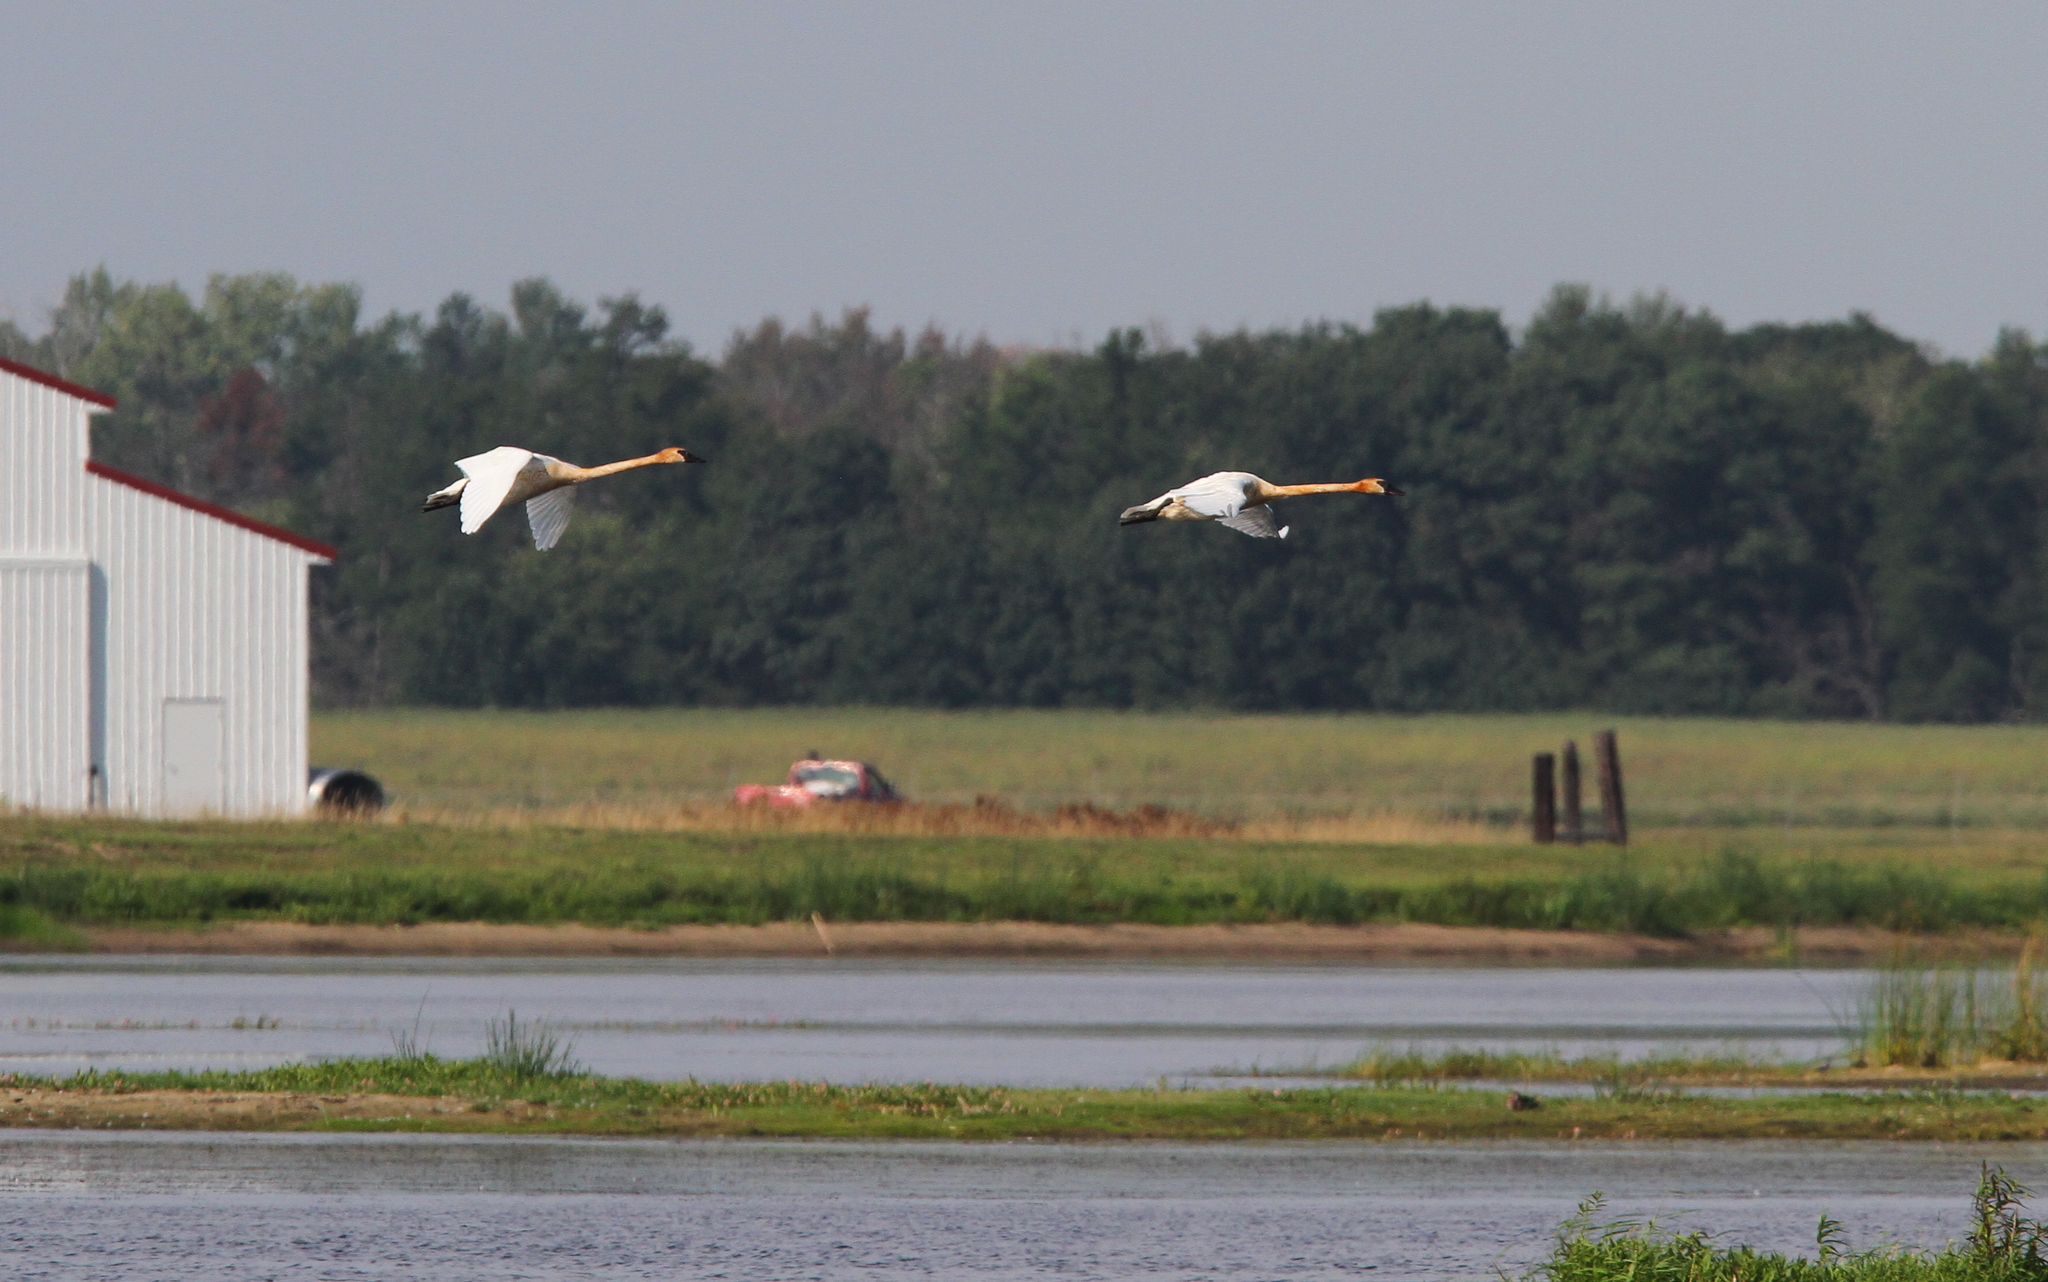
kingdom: Animalia
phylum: Chordata
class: Aves
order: Anseriformes
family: Anatidae
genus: Cygnus
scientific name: Cygnus buccinator
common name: Trumpeter swan
